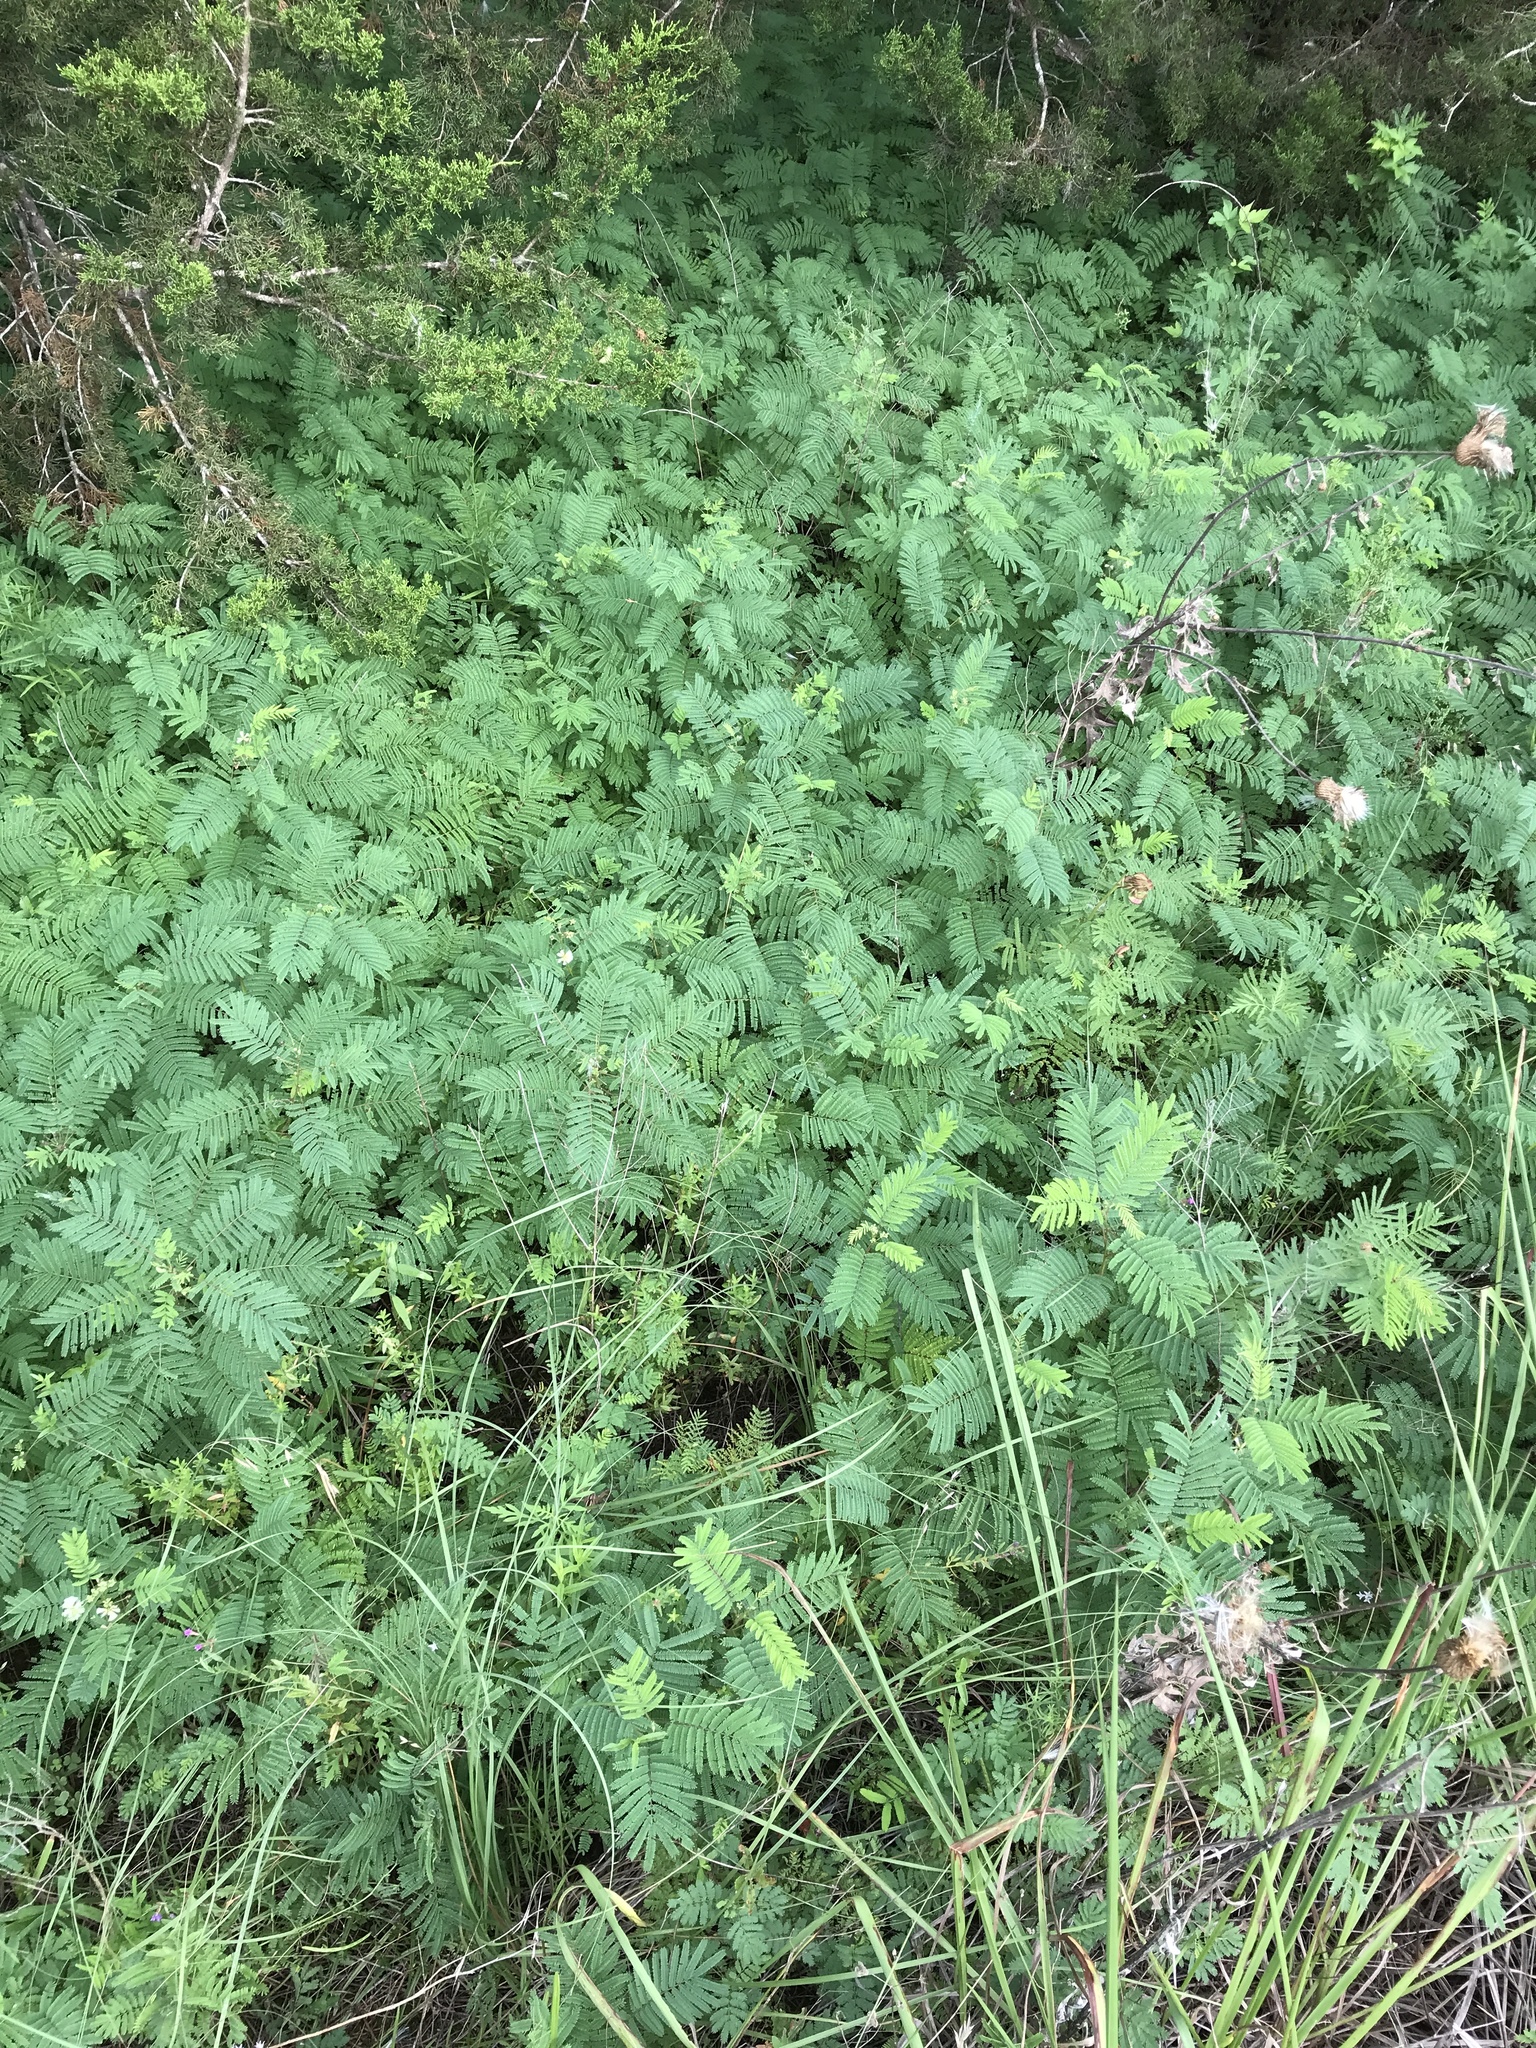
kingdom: Plantae
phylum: Tracheophyta
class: Magnoliopsida
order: Fabales
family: Fabaceae
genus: Desmanthus
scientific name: Desmanthus illinoensis
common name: Illinois bundle-flower
